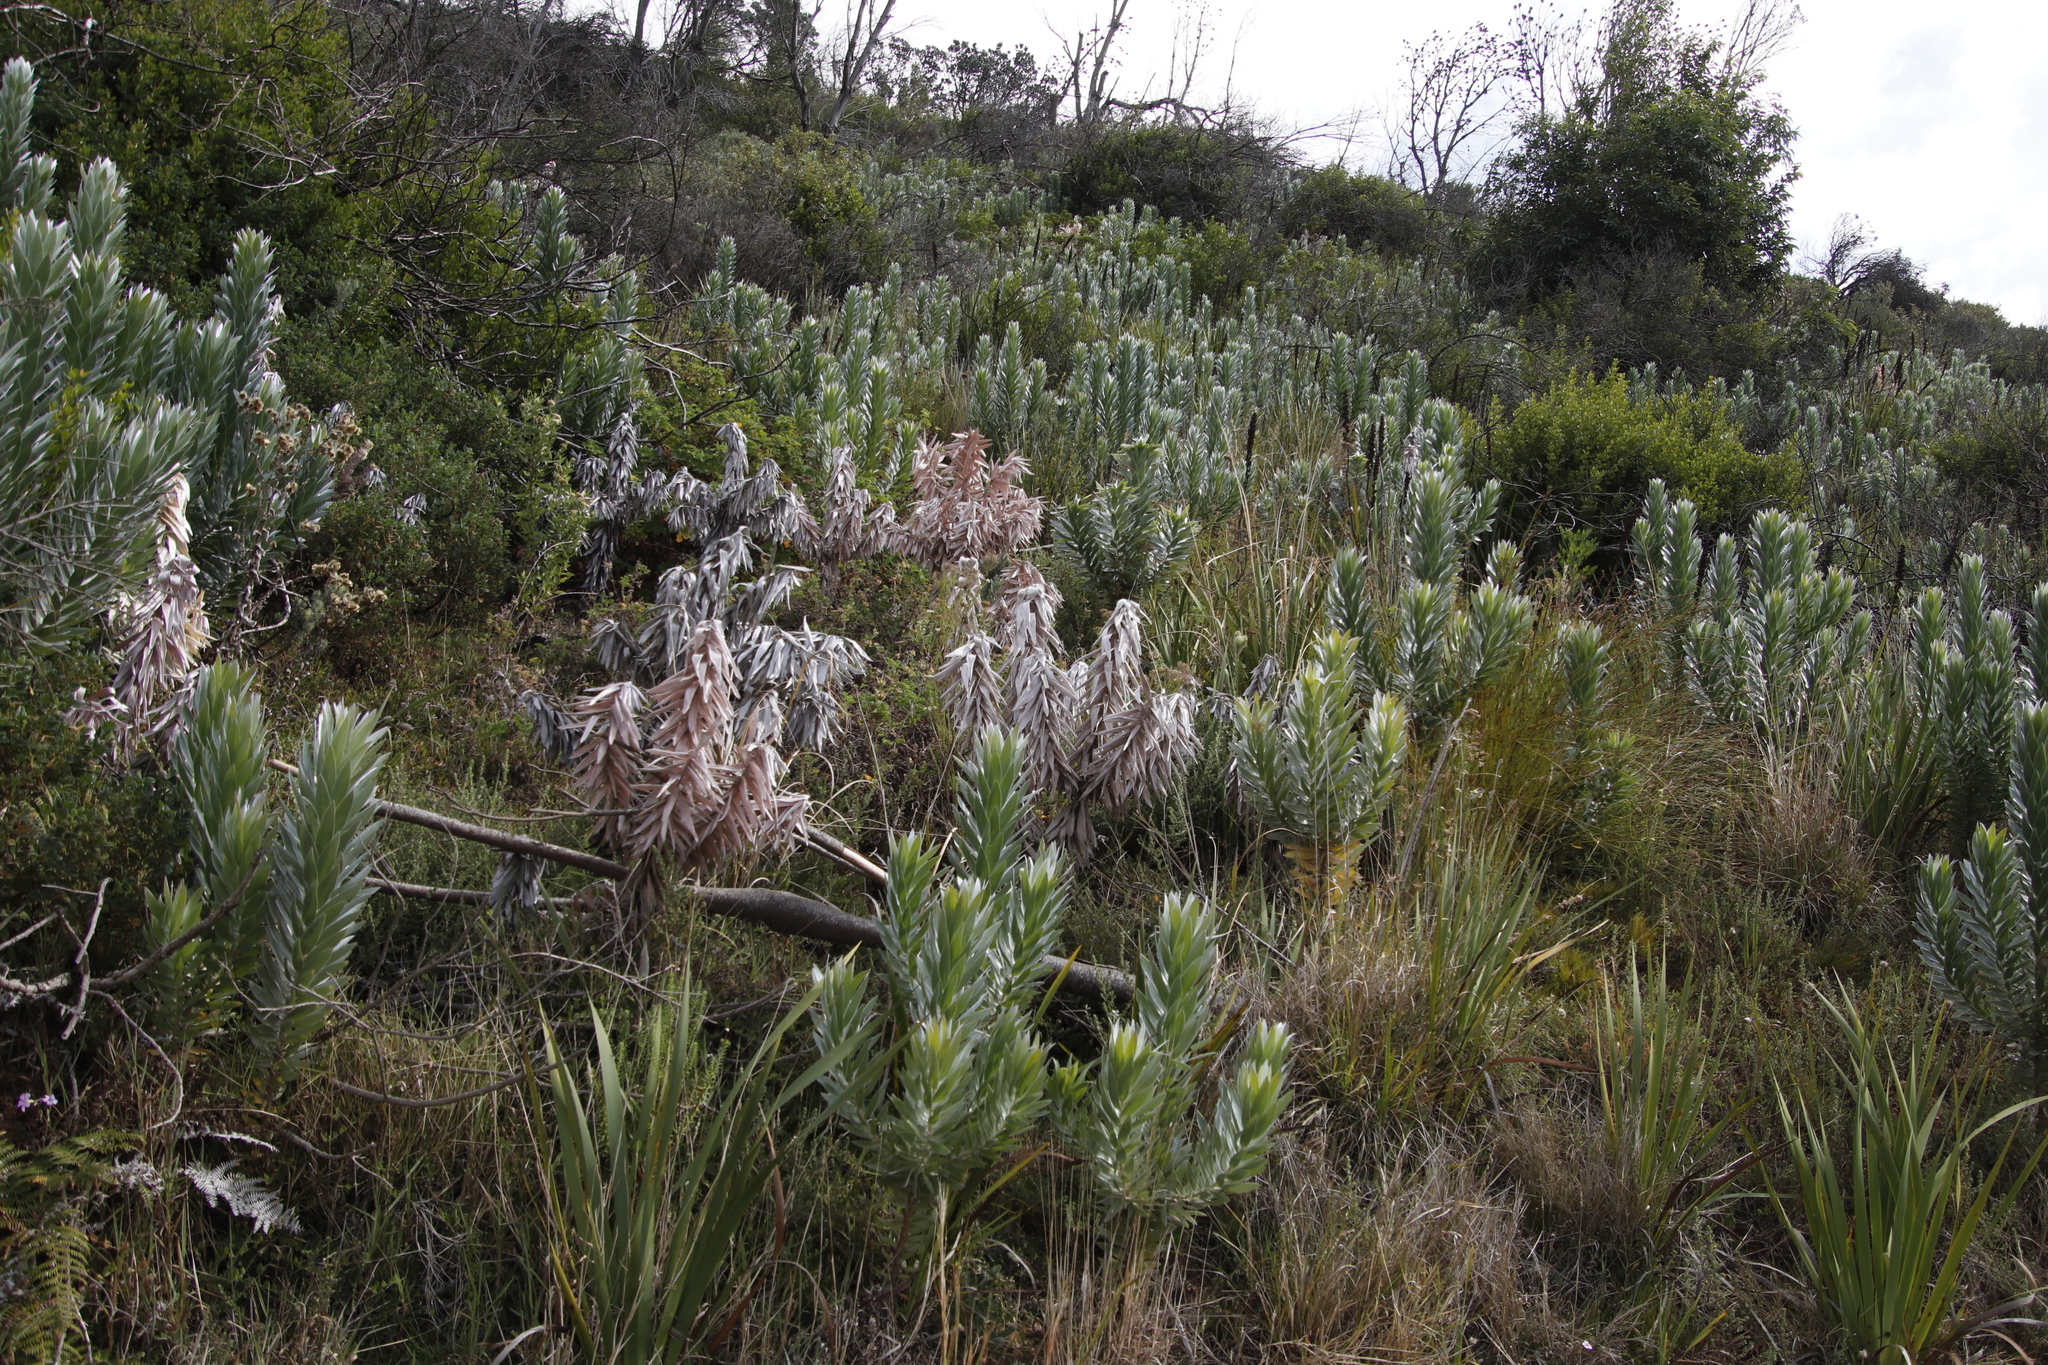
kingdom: Plantae
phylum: Tracheophyta
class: Magnoliopsida
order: Proteales
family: Proteaceae
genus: Leucadendron
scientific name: Leucadendron argenteum
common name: Cape silver tree
